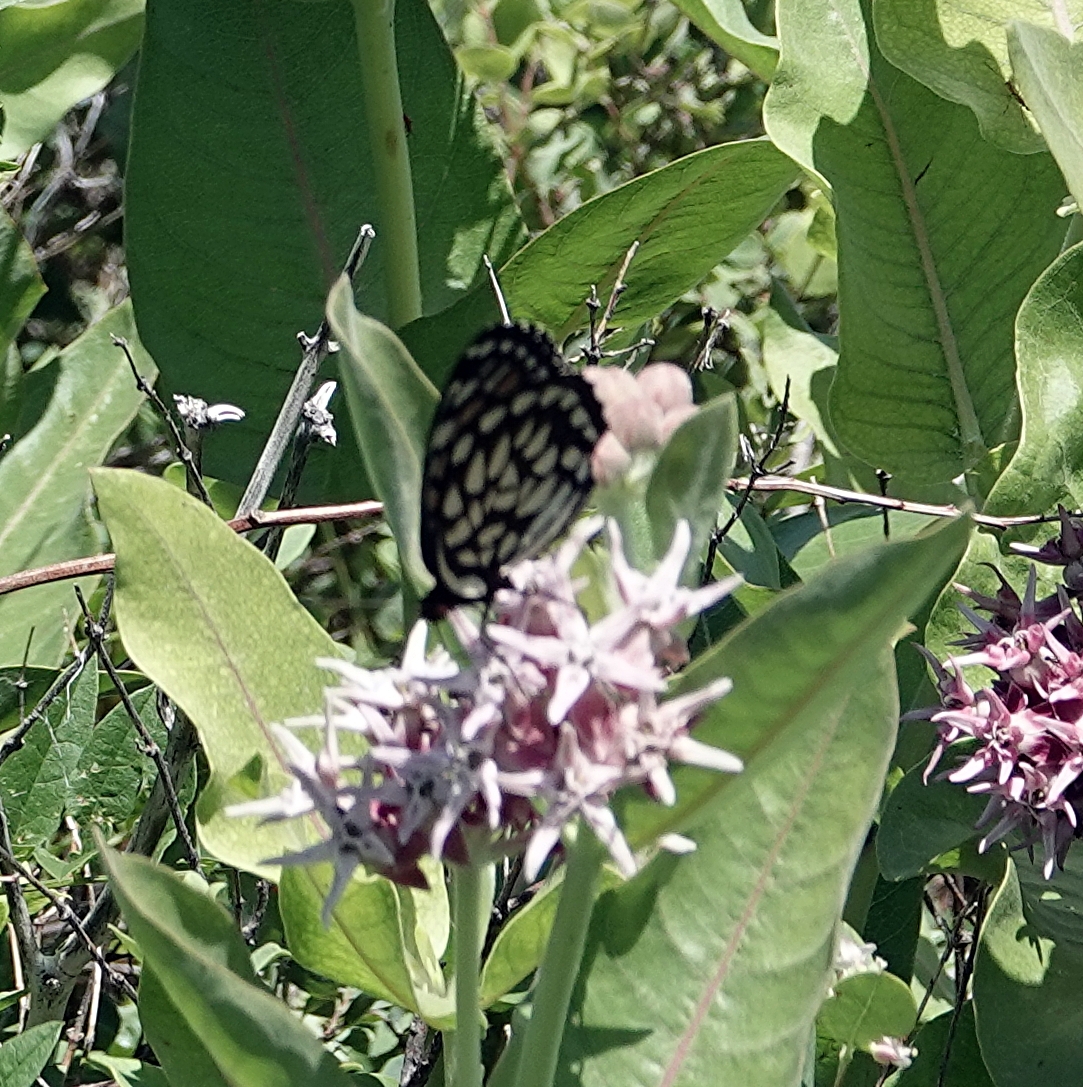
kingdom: Animalia
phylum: Arthropoda
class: Insecta
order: Lepidoptera
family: Nymphalidae
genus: Speyeria
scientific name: Speyeria idalia
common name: Regal fritillary
